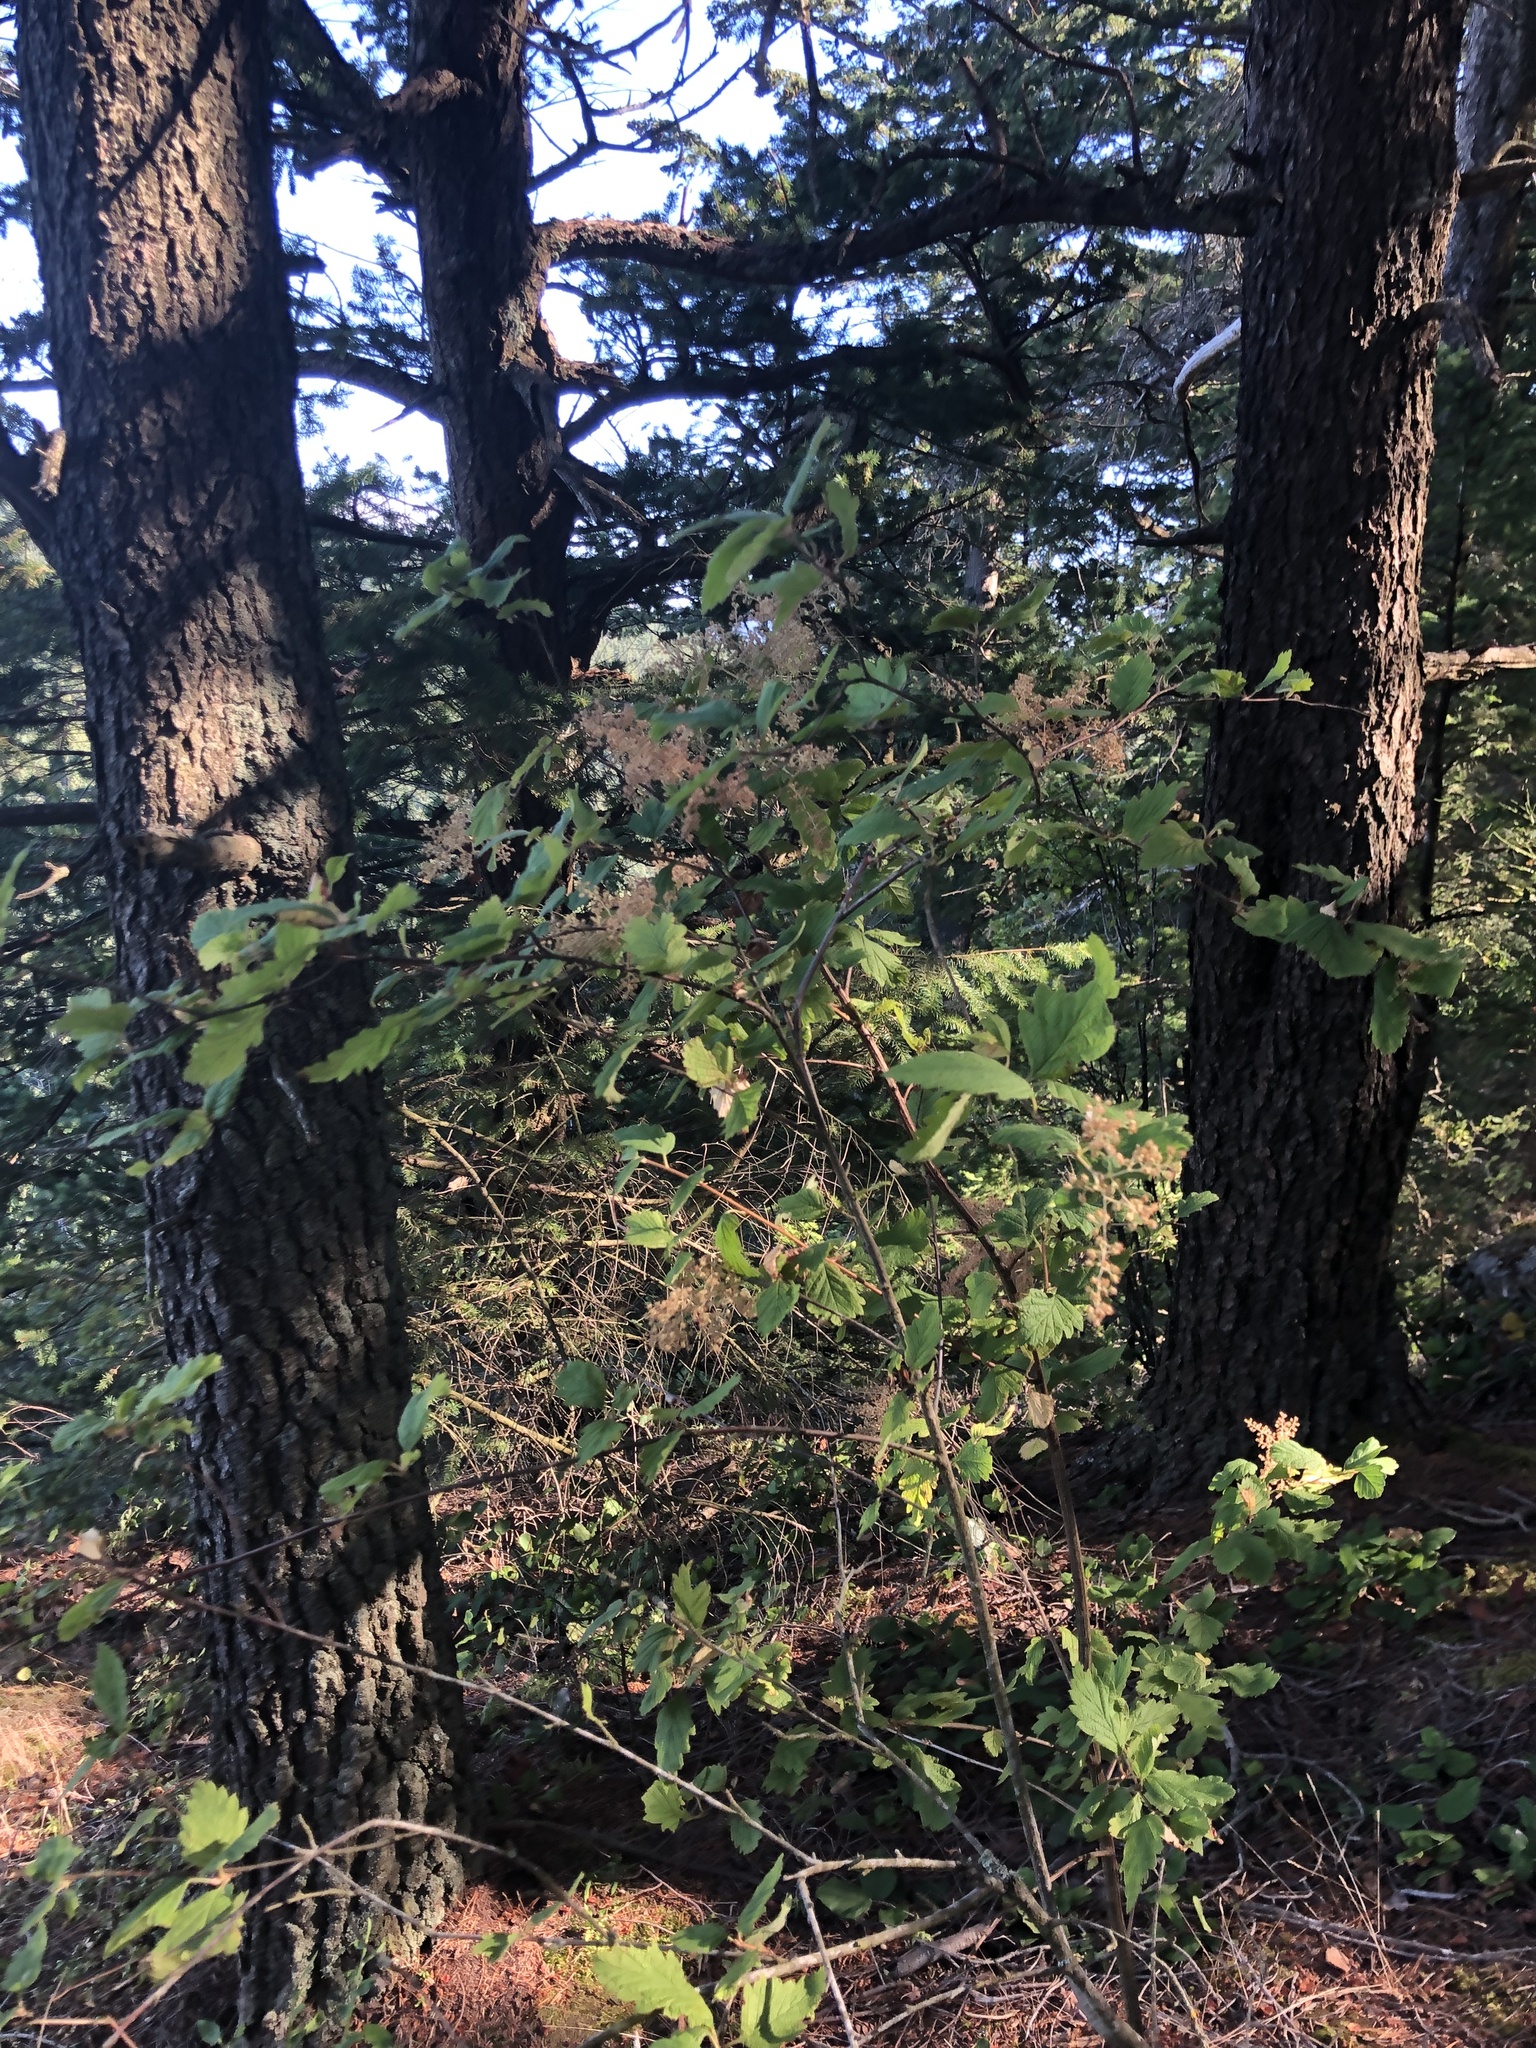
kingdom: Plantae
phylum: Tracheophyta
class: Magnoliopsida
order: Rosales
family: Rosaceae
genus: Holodiscus
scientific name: Holodiscus discolor
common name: Oceanspray
